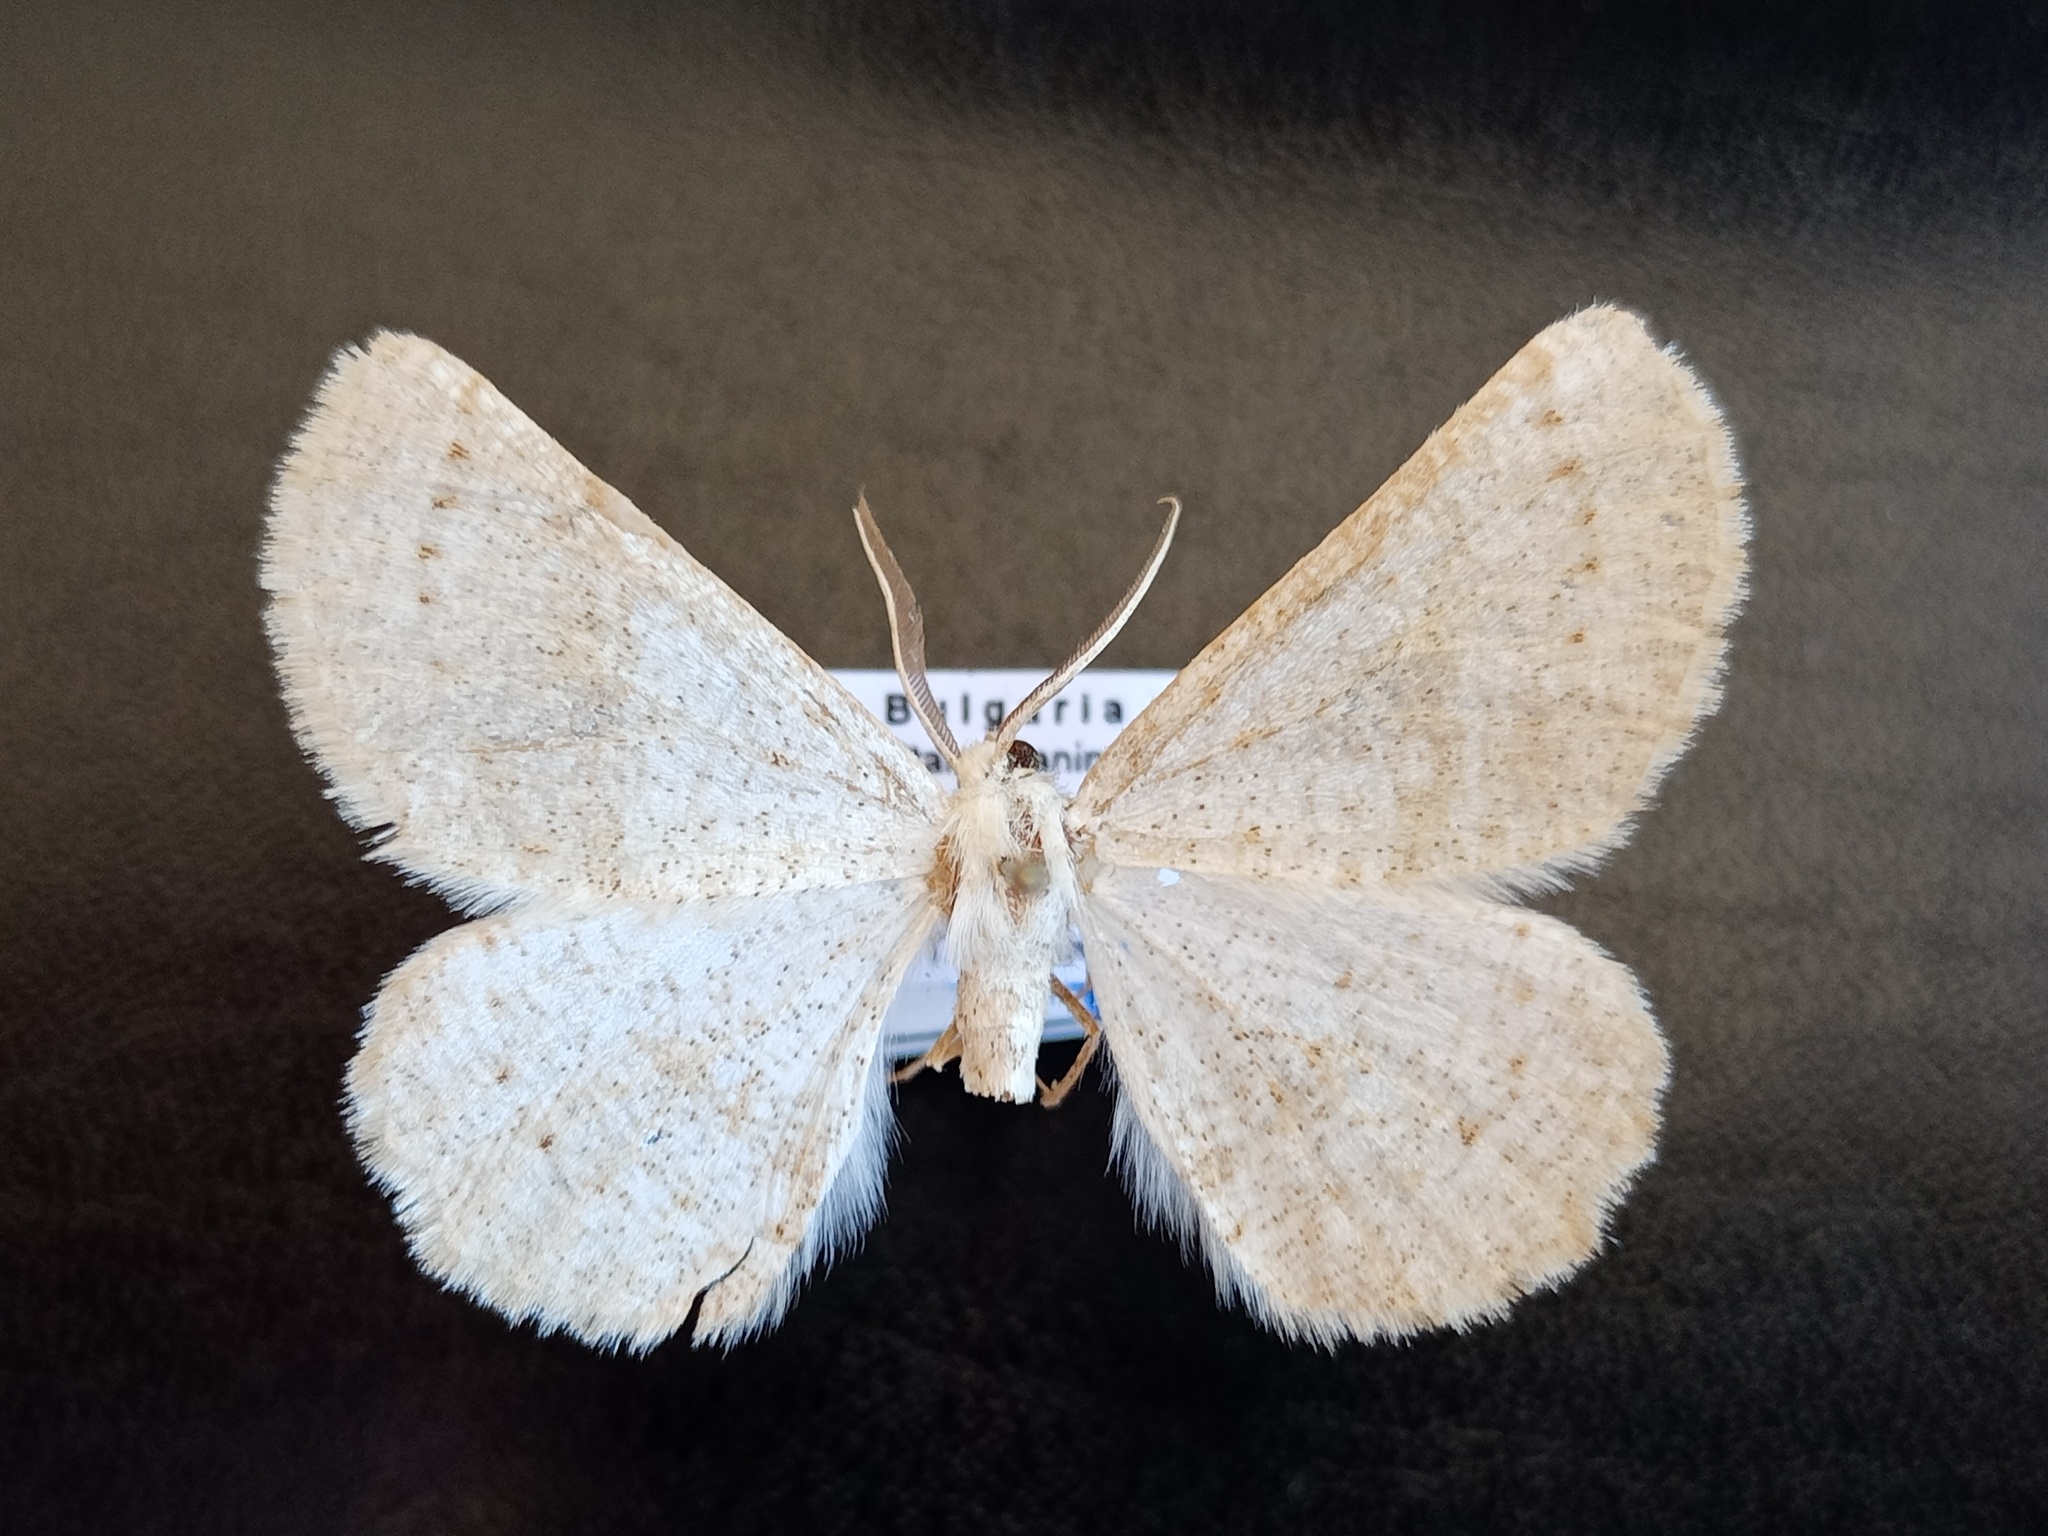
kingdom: Animalia
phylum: Arthropoda
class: Insecta
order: Lepidoptera
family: Geometridae
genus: Dyscia
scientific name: Dyscia innocentaria
